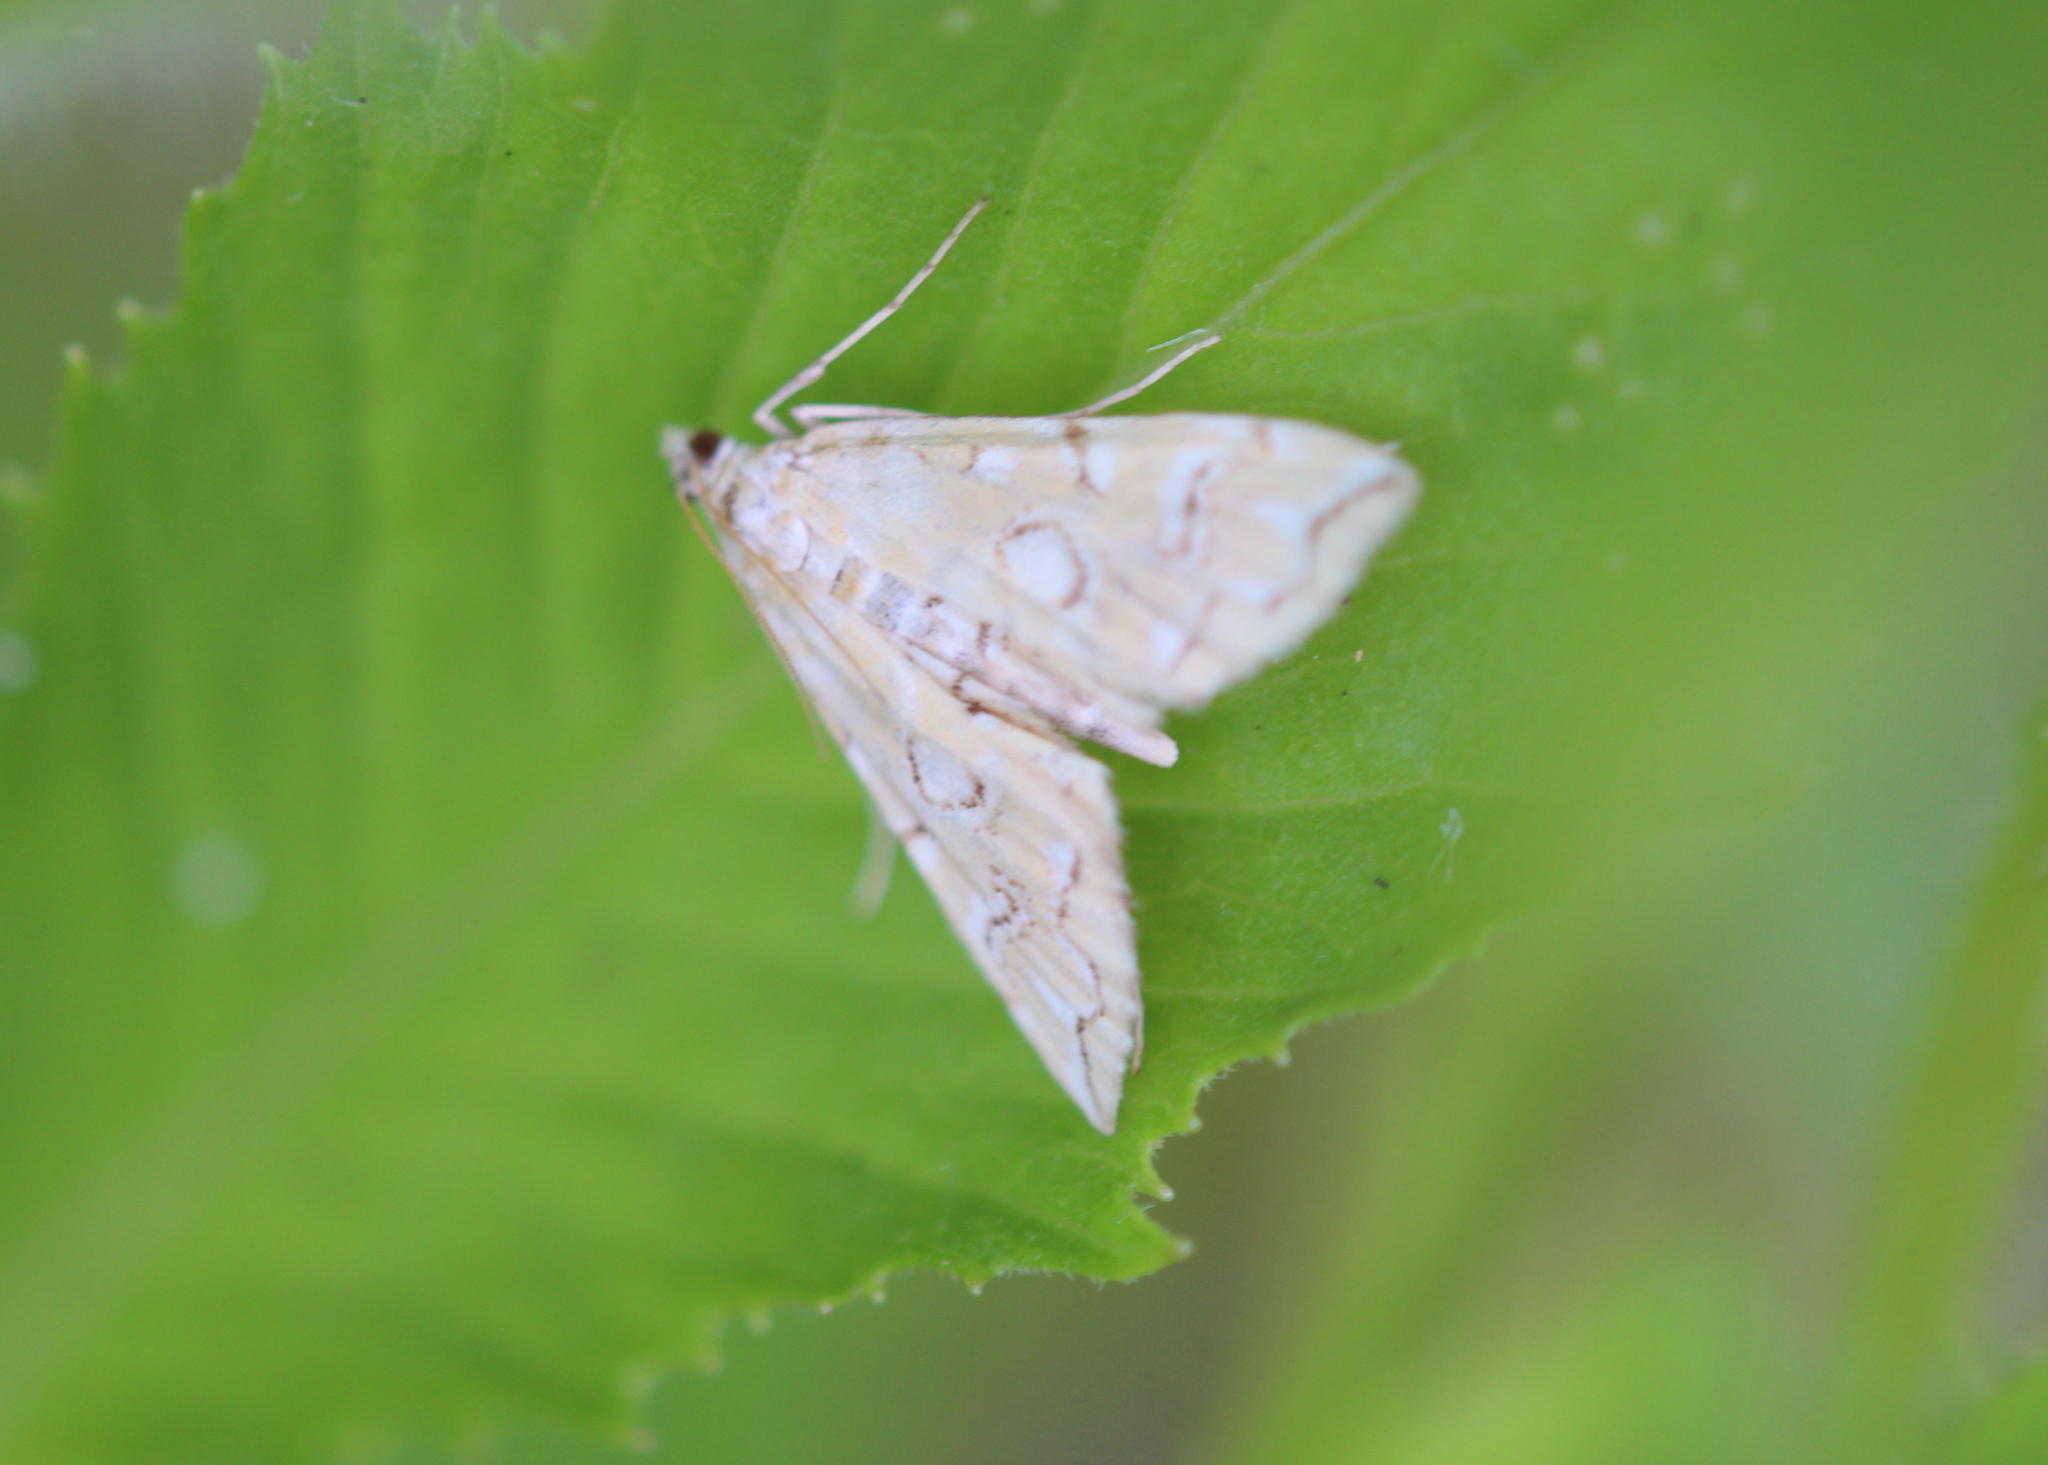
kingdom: Animalia
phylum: Arthropoda
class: Insecta
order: Lepidoptera
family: Crambidae
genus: Elophila
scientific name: Elophila icciusalis
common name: Pondside pyralid moth
